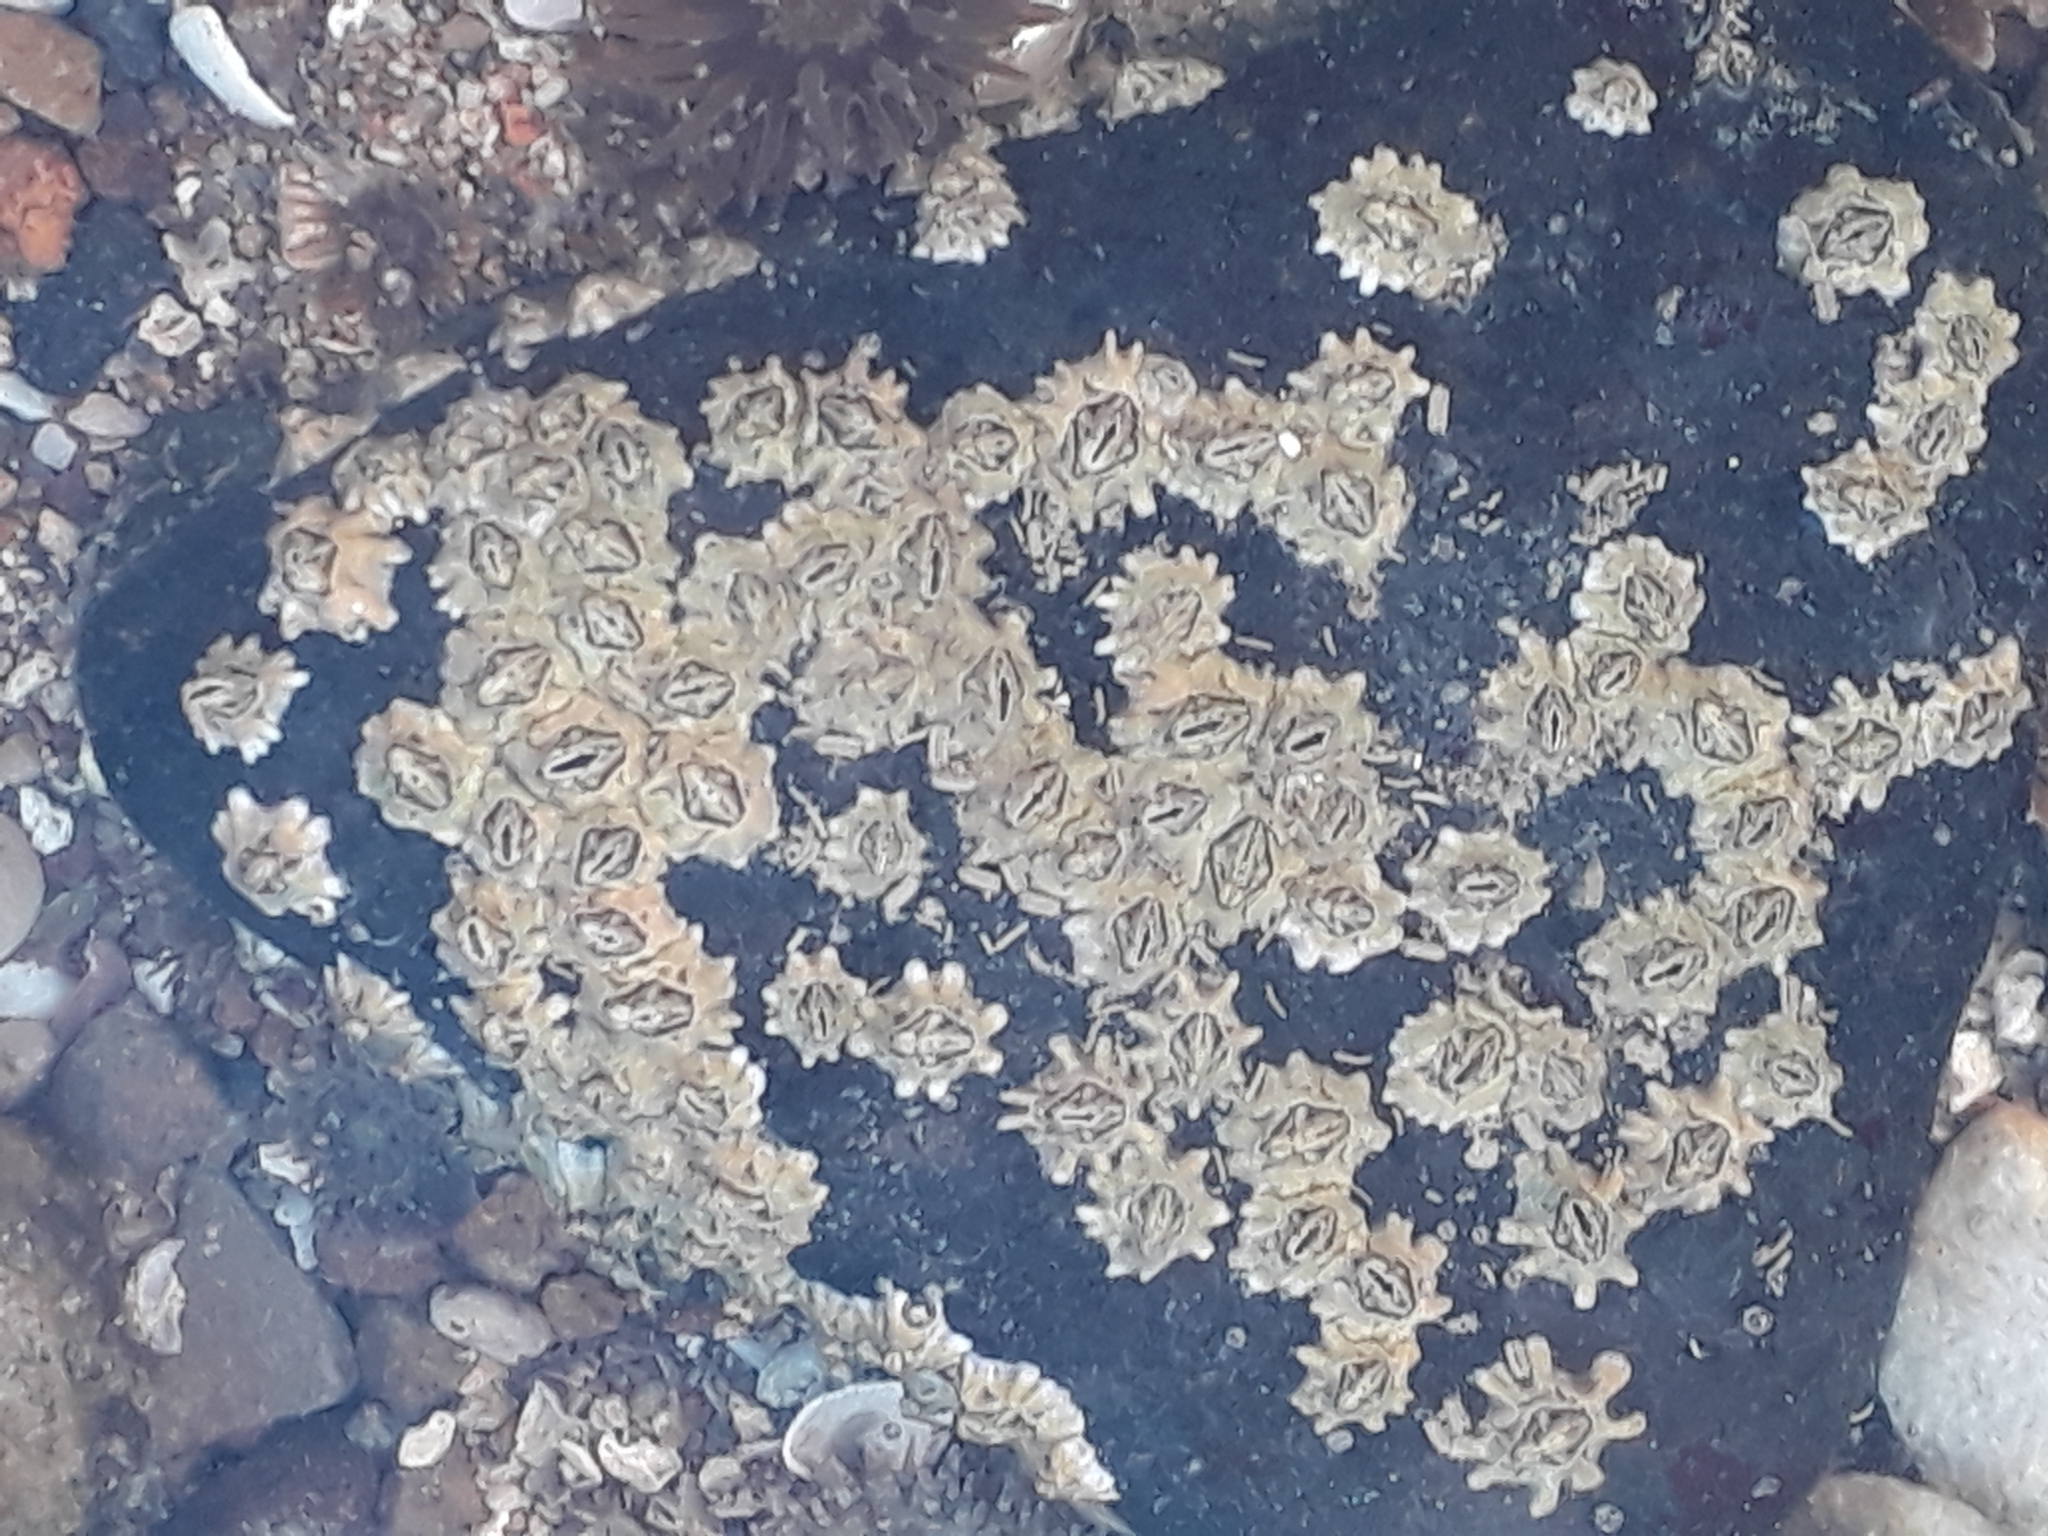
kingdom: Animalia
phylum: Arthropoda
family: Elminiidae
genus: Austrominius
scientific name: Austrominius modestus
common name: Australasian barnacle
